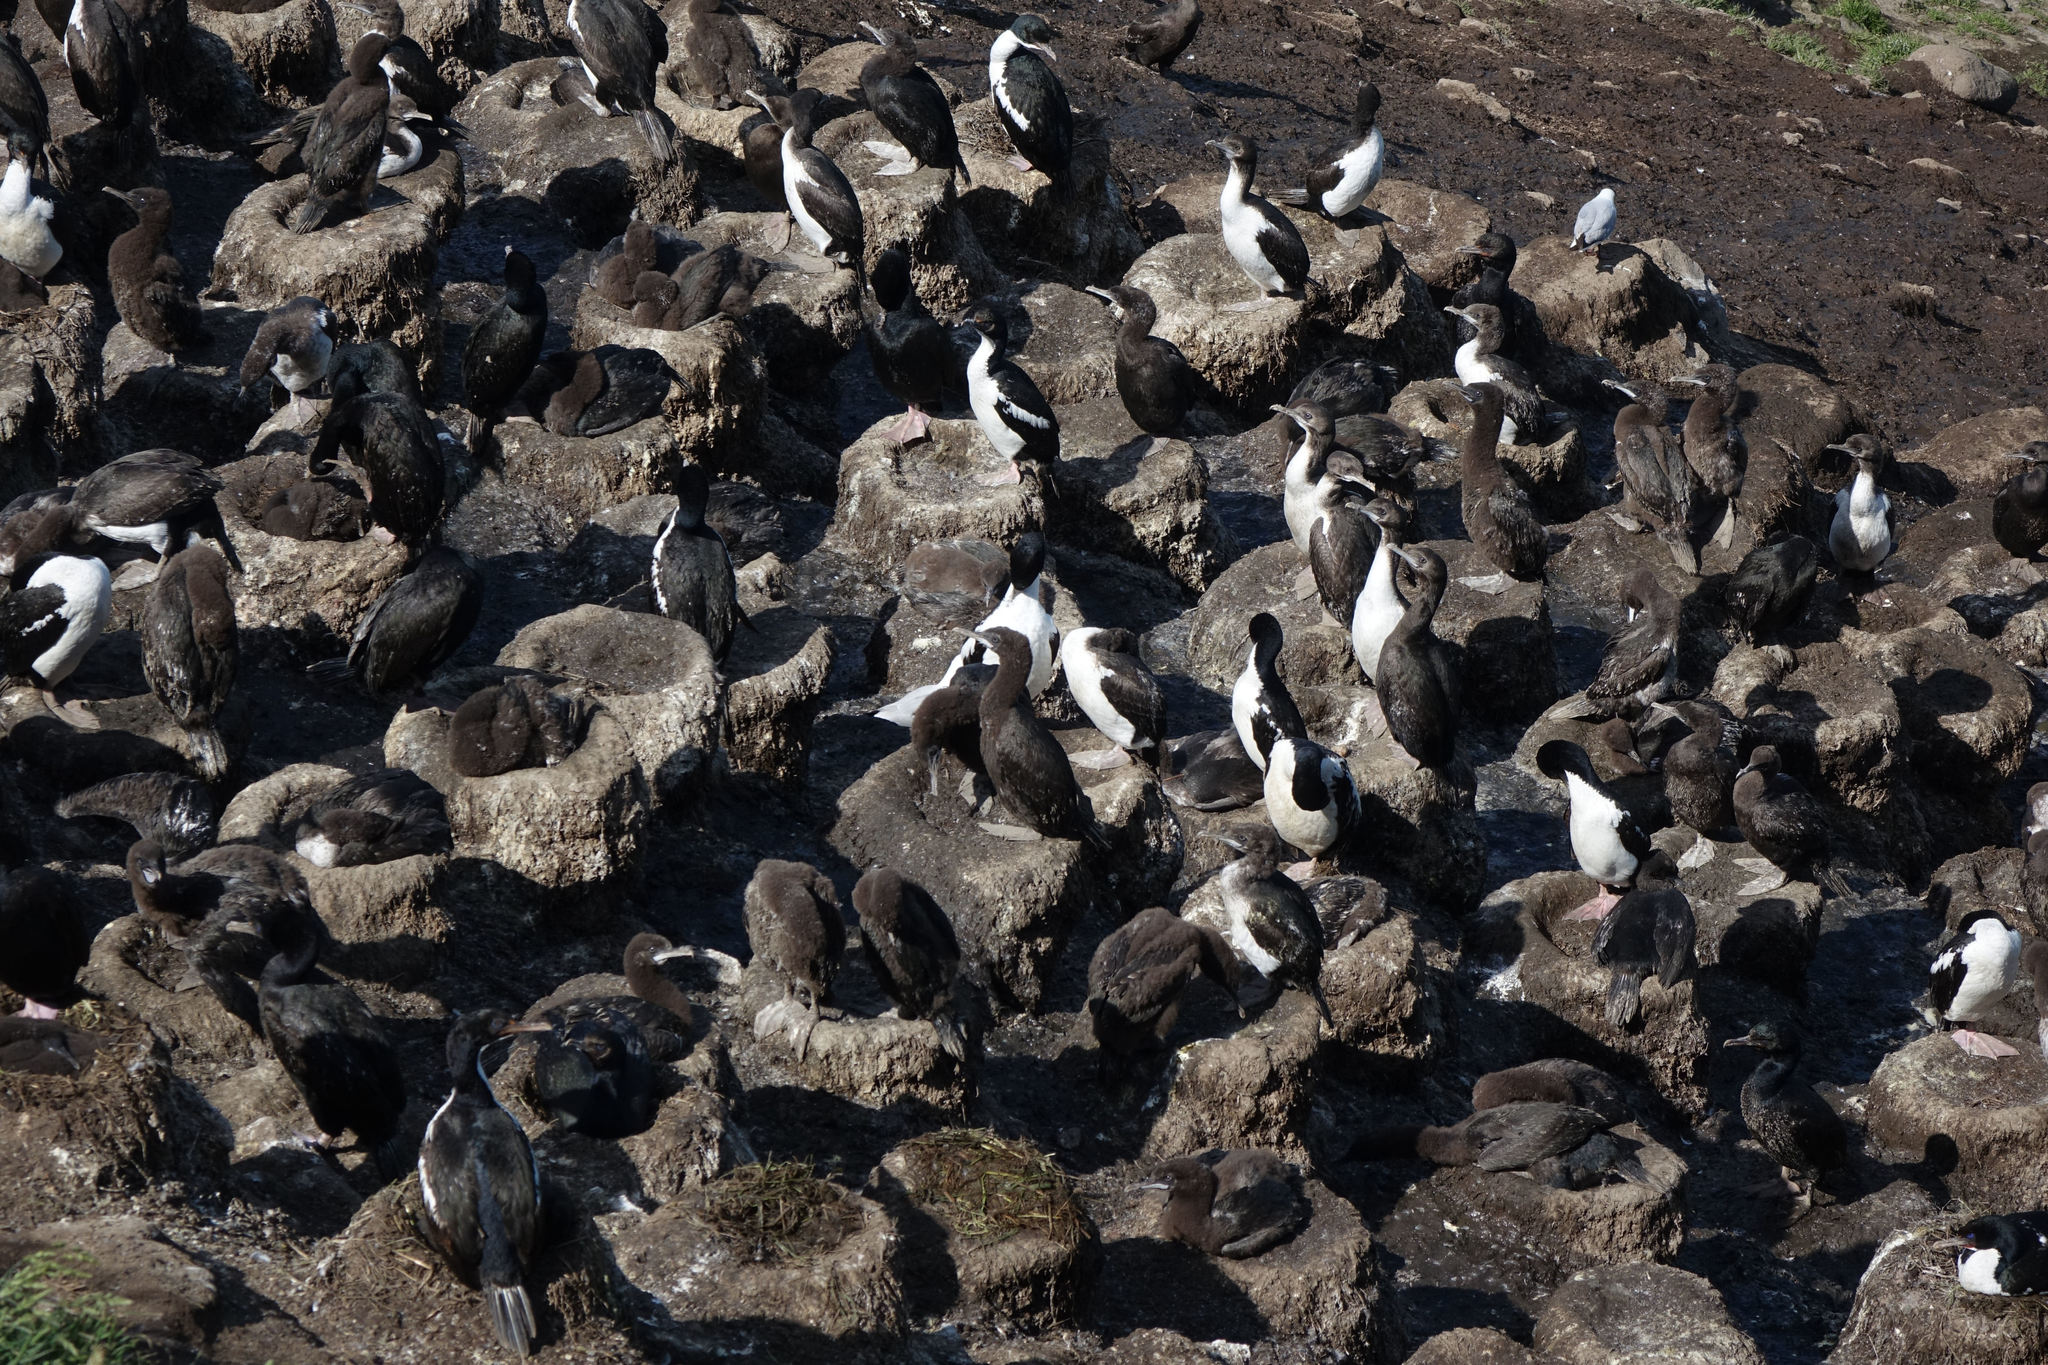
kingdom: Animalia
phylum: Chordata
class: Aves
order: Suliformes
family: Phalacrocoracidae
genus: Leucocarbo
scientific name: Leucocarbo chalconotus
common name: Stewart shag
